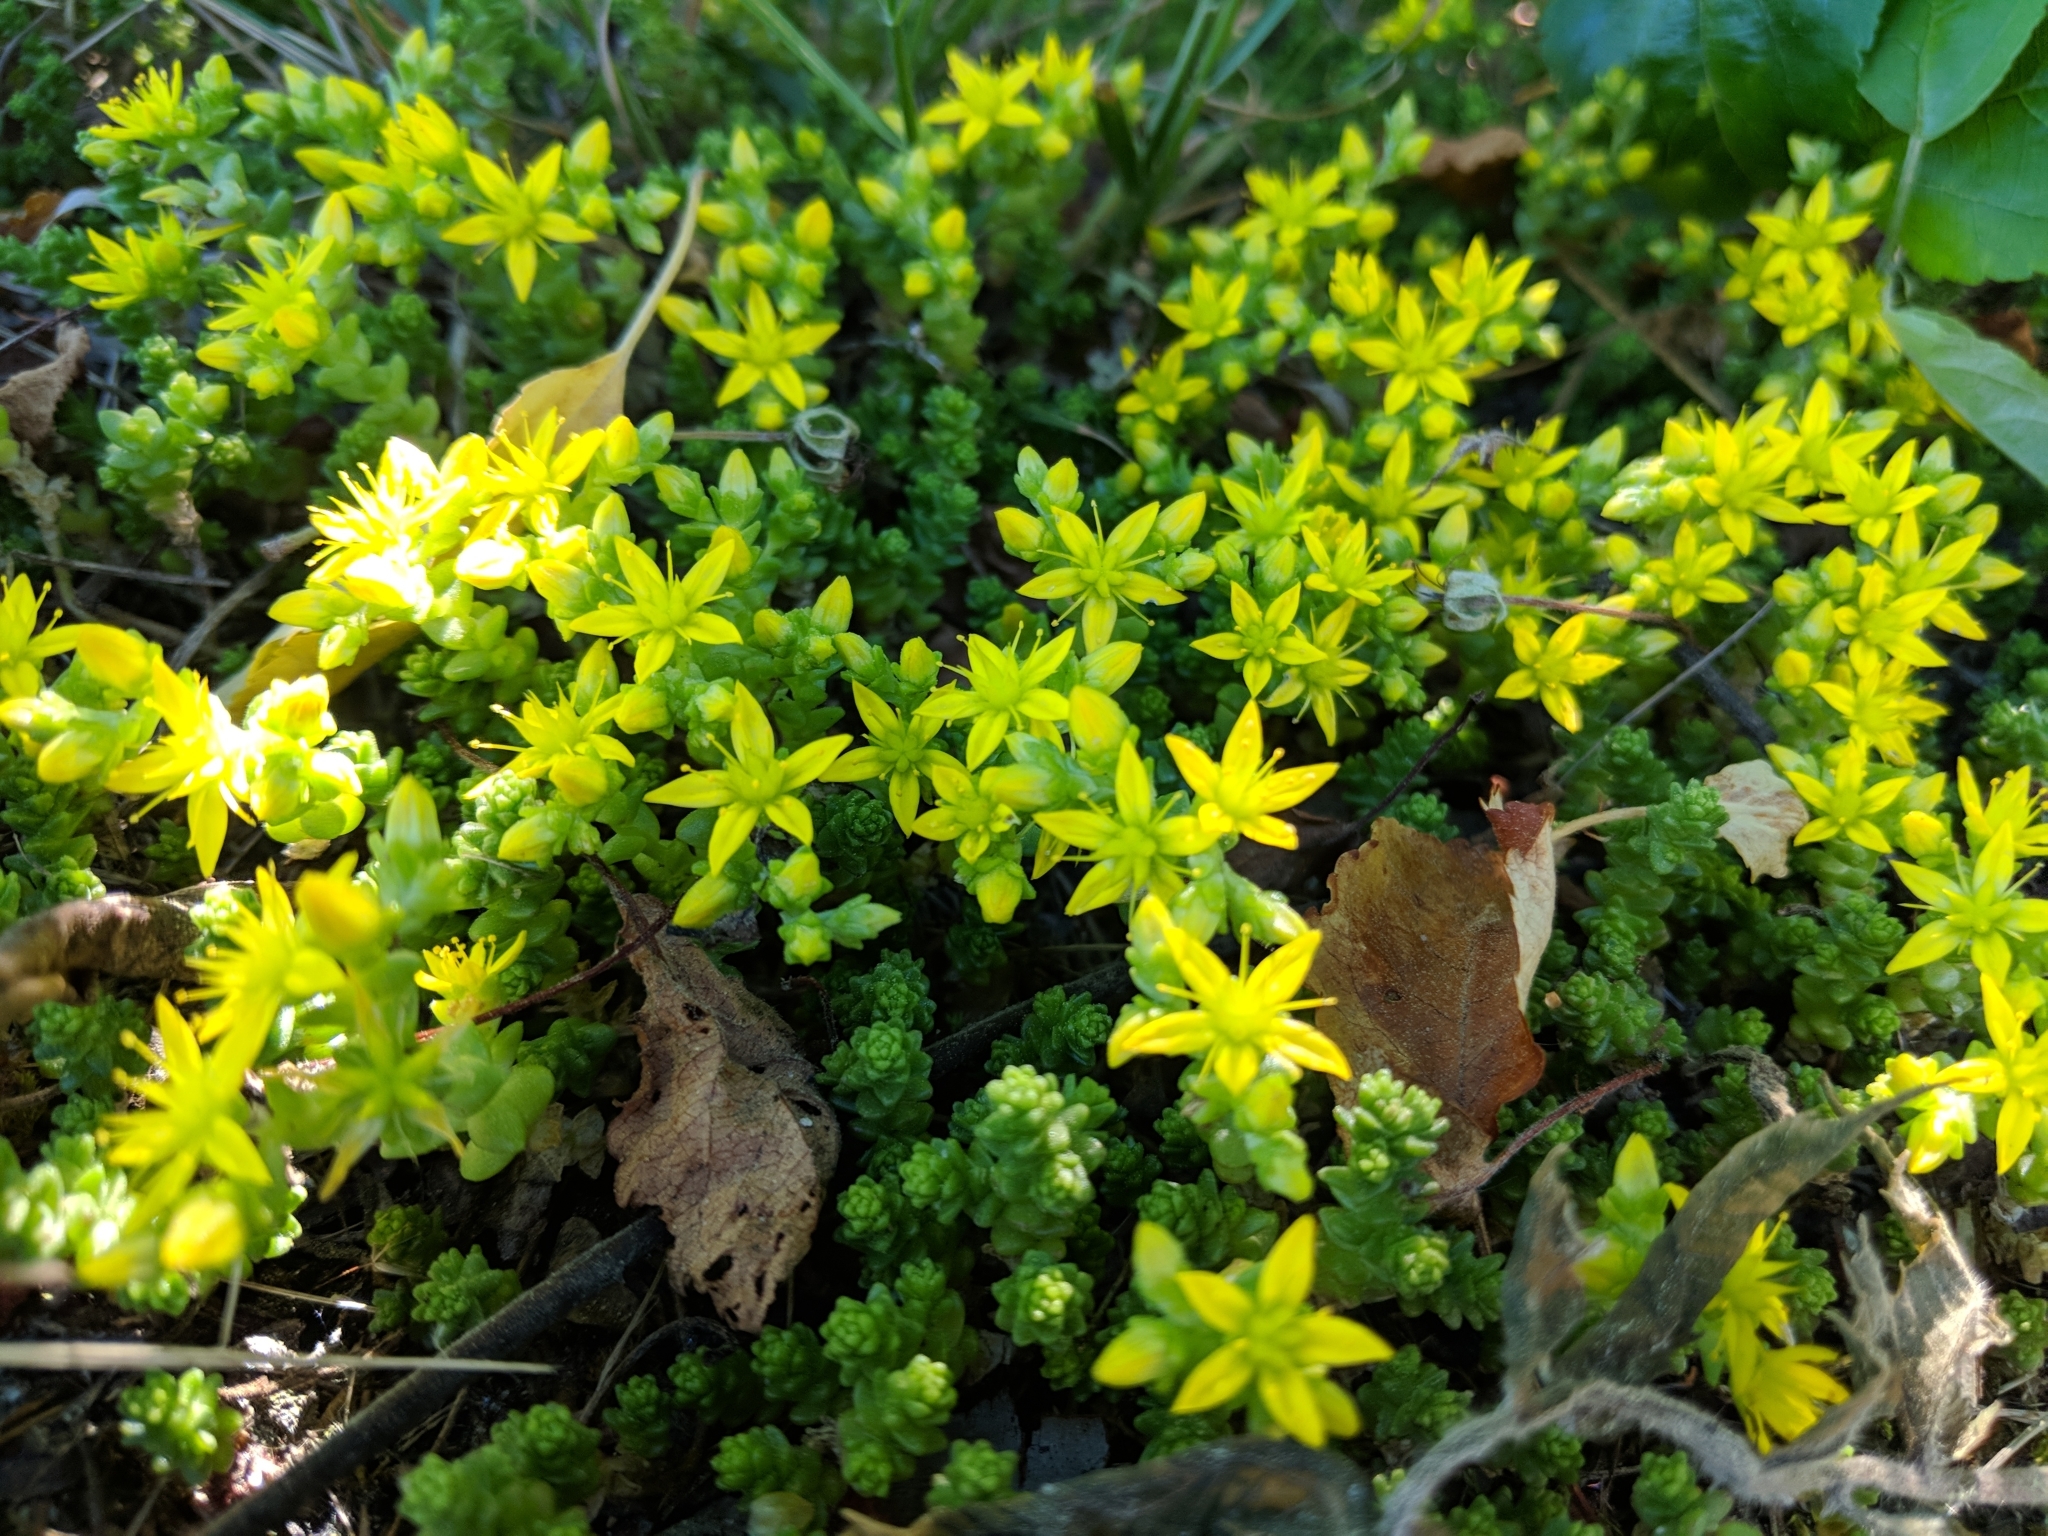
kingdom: Plantae
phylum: Tracheophyta
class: Magnoliopsida
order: Saxifragales
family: Crassulaceae
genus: Sedum
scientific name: Sedum acre
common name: Biting stonecrop
